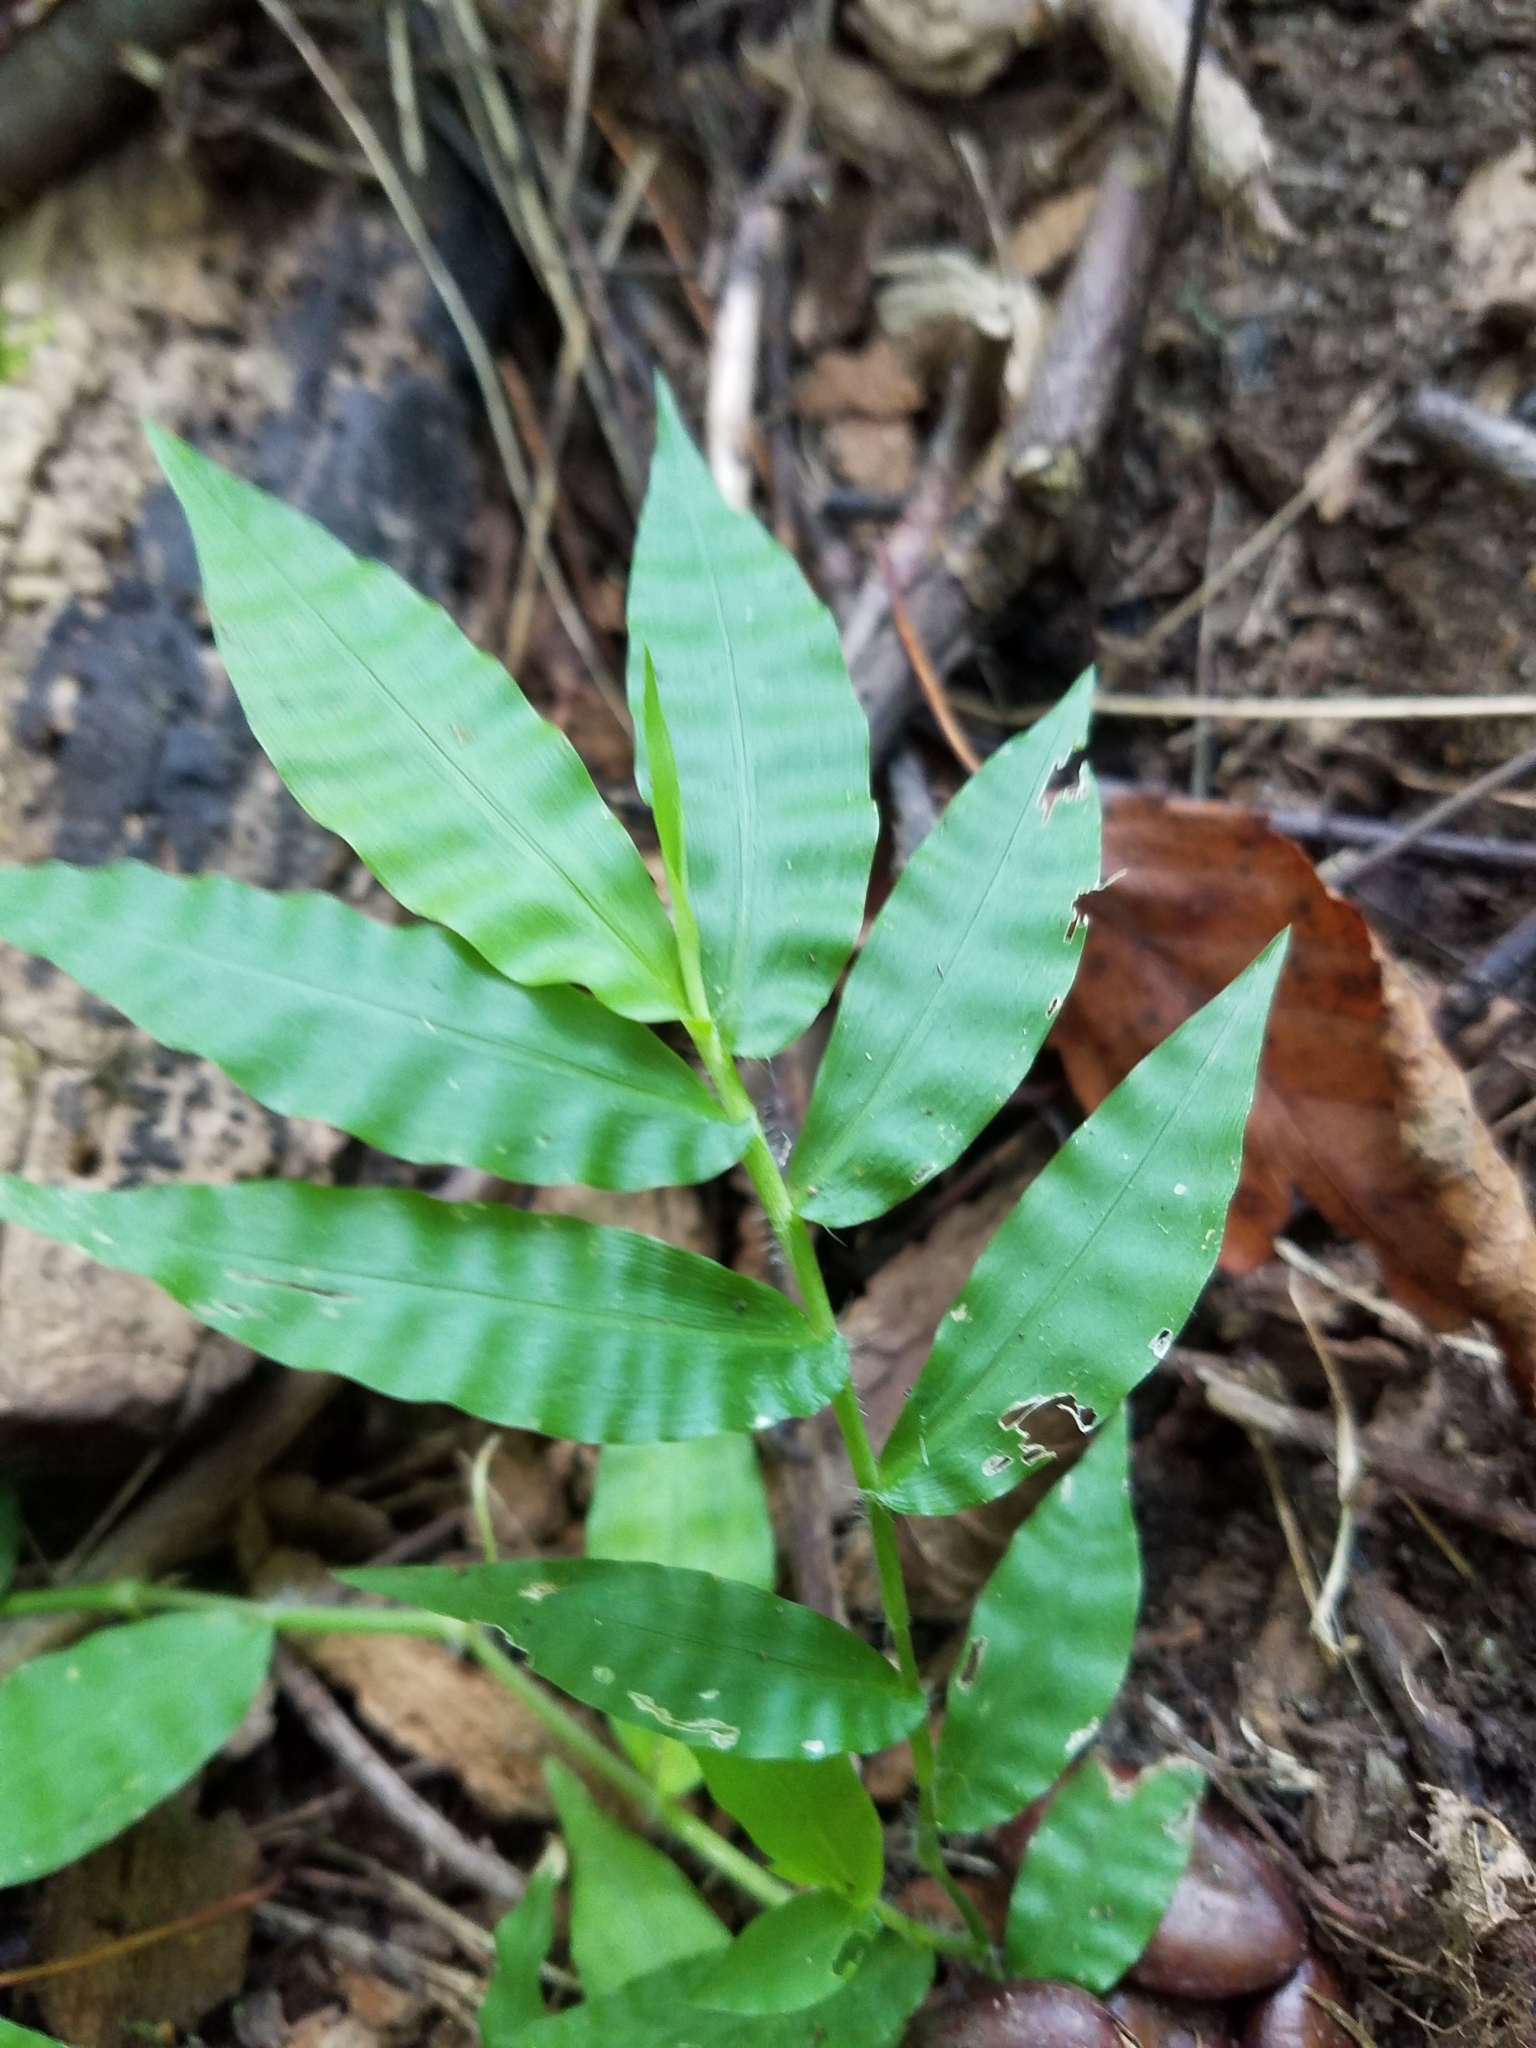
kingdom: Plantae
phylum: Tracheophyta
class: Liliopsida
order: Poales
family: Poaceae
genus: Oplismenus
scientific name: Oplismenus undulatifolius
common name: Wavyleaf basketgrass
